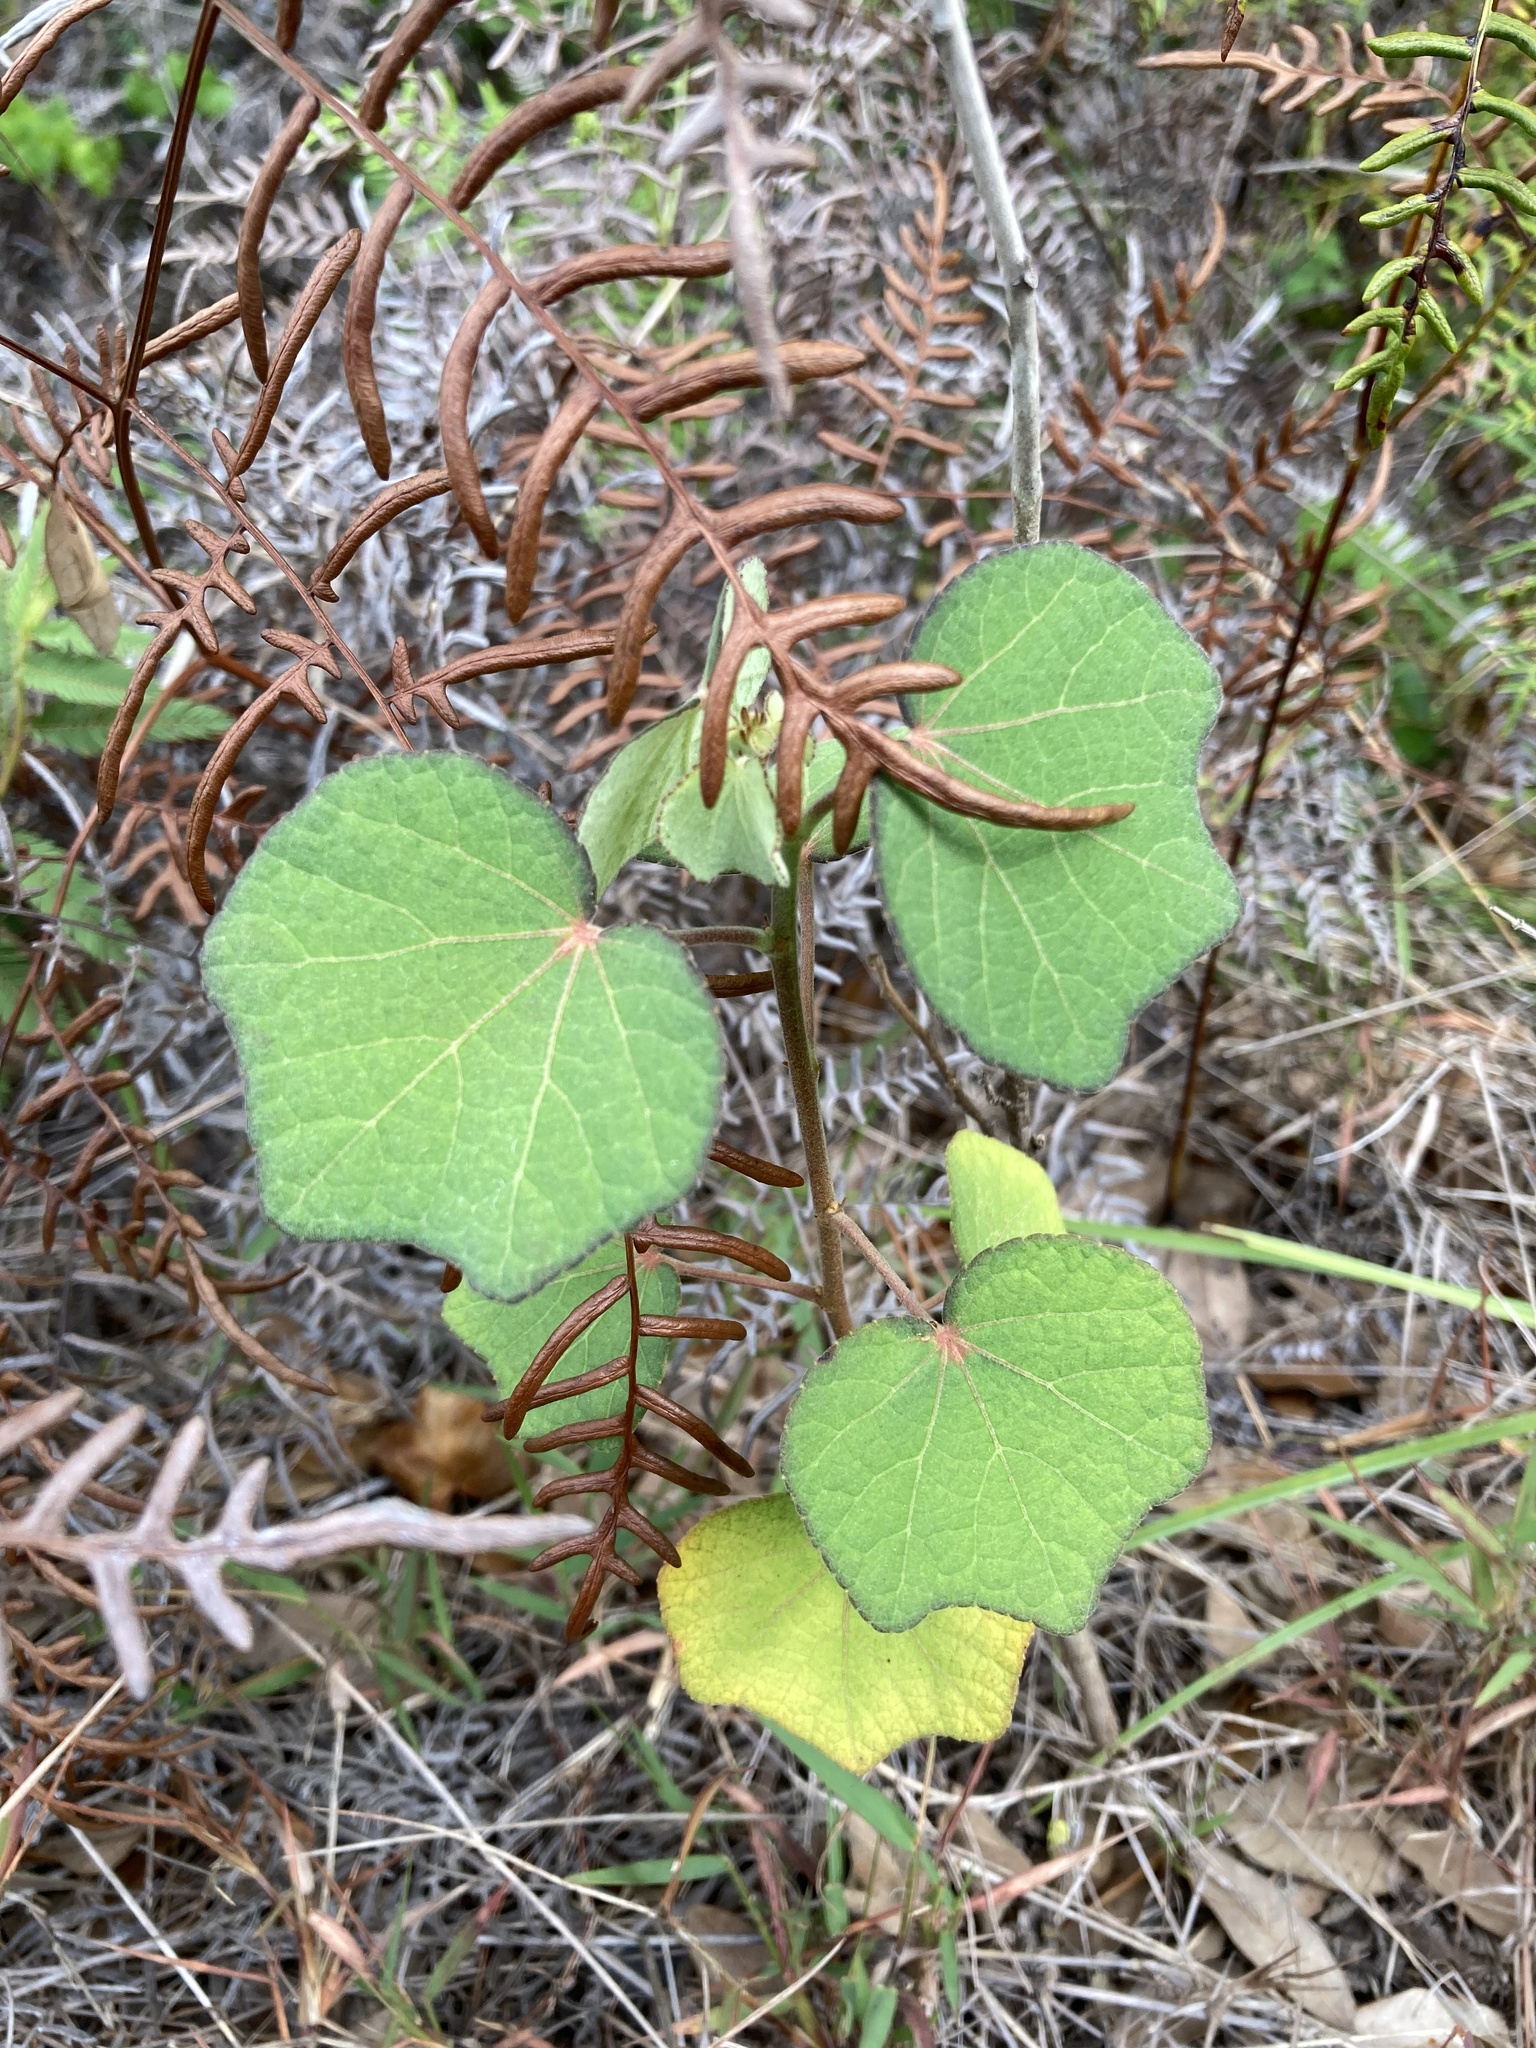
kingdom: Plantae
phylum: Tracheophyta
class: Magnoliopsida
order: Malvales
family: Malvaceae
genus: Urena
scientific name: Urena lobata
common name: Caesarweed
